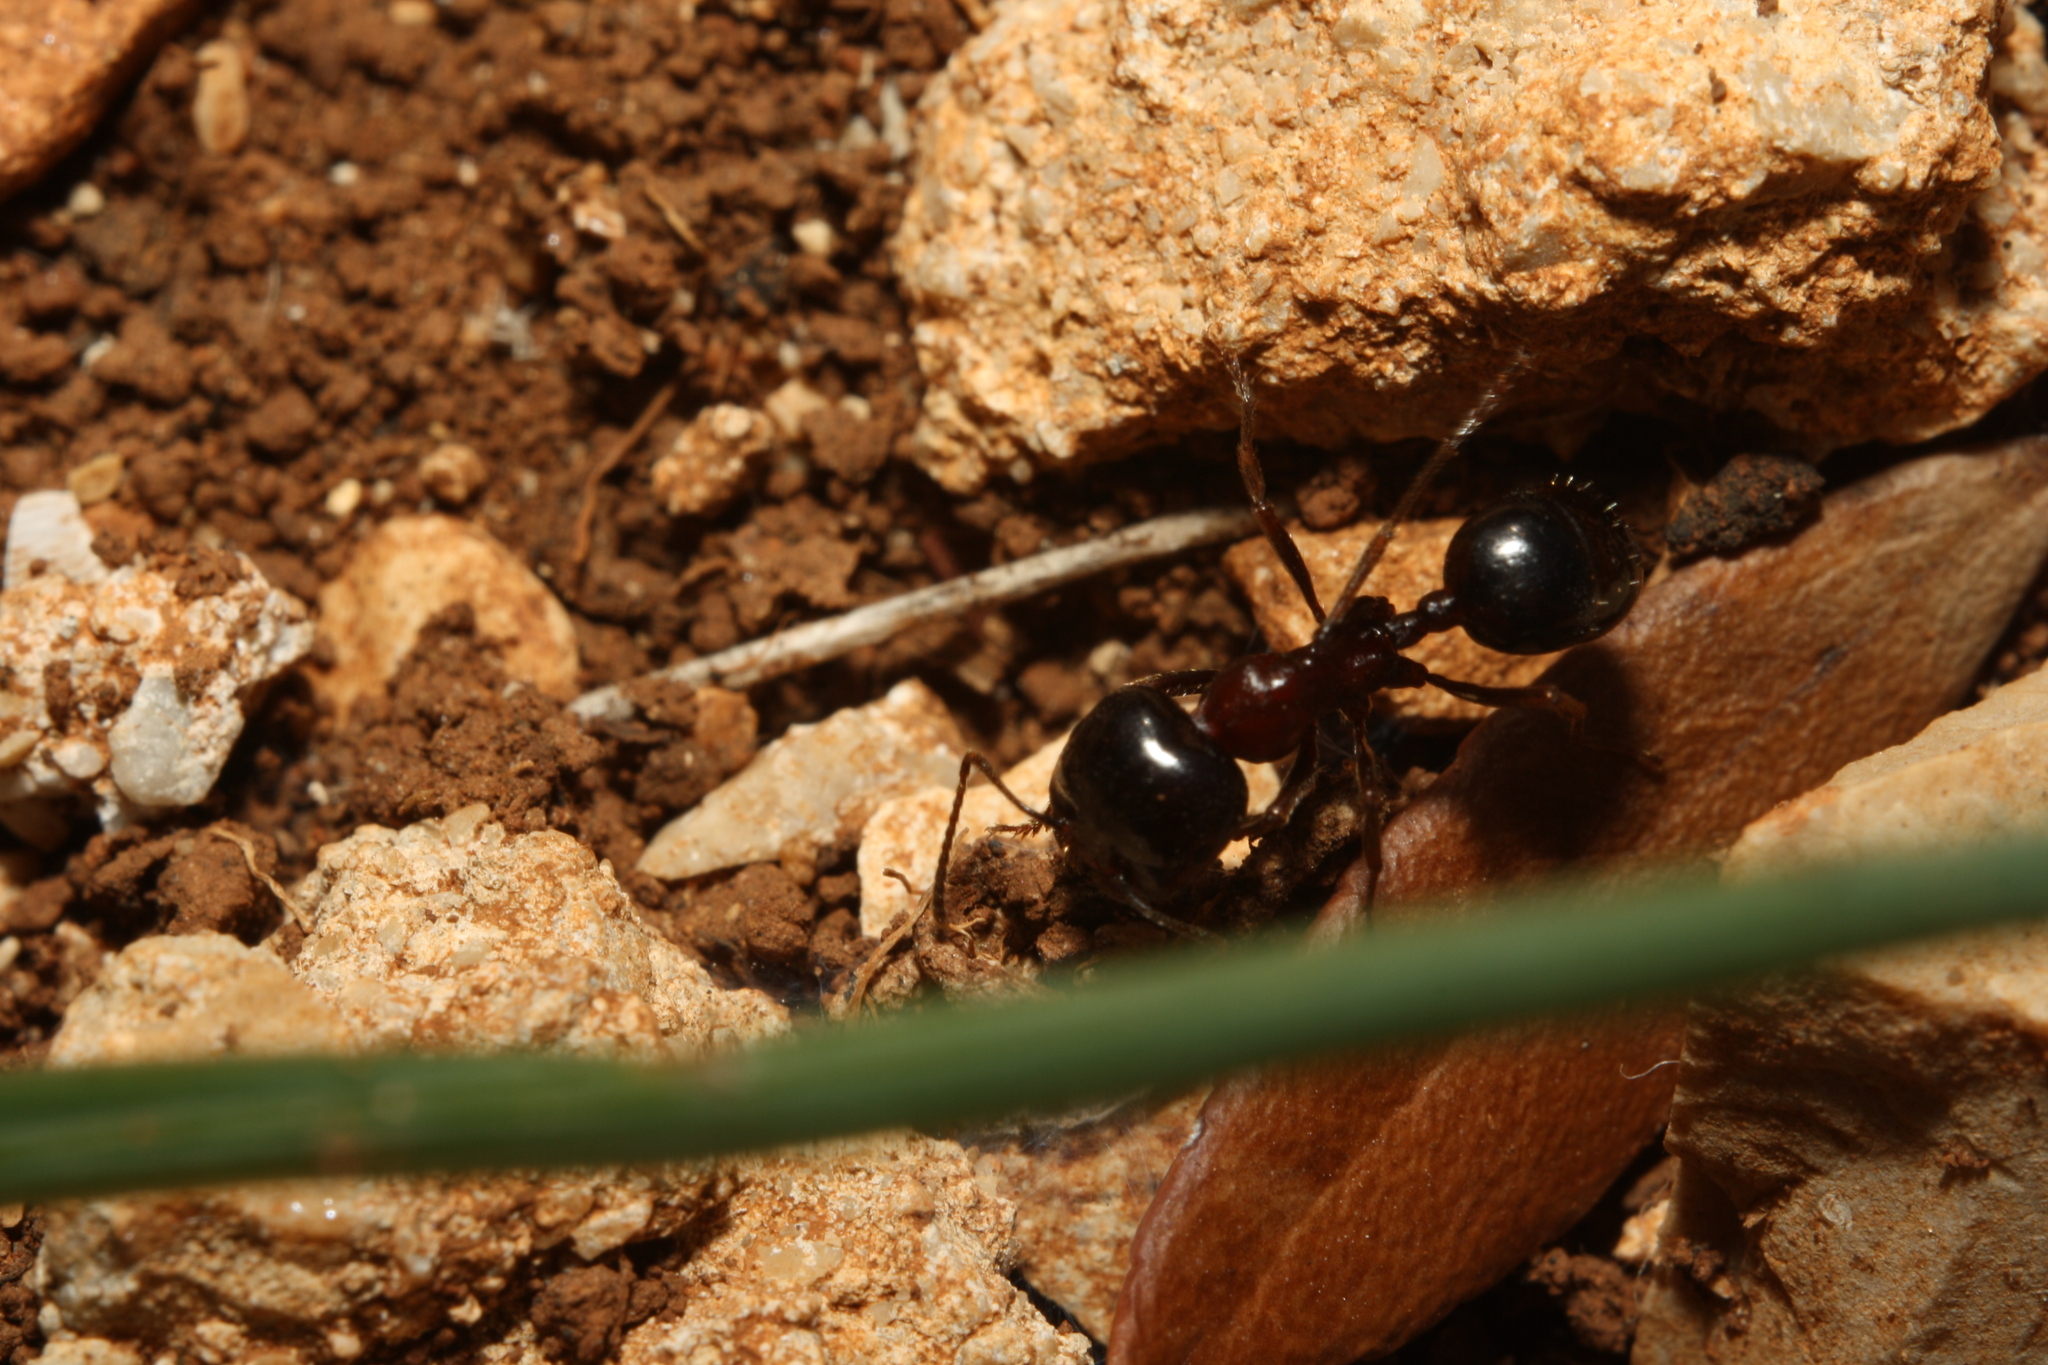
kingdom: Animalia
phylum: Arthropoda
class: Insecta
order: Hymenoptera
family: Formicidae
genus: Messor
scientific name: Messor wasmanni
